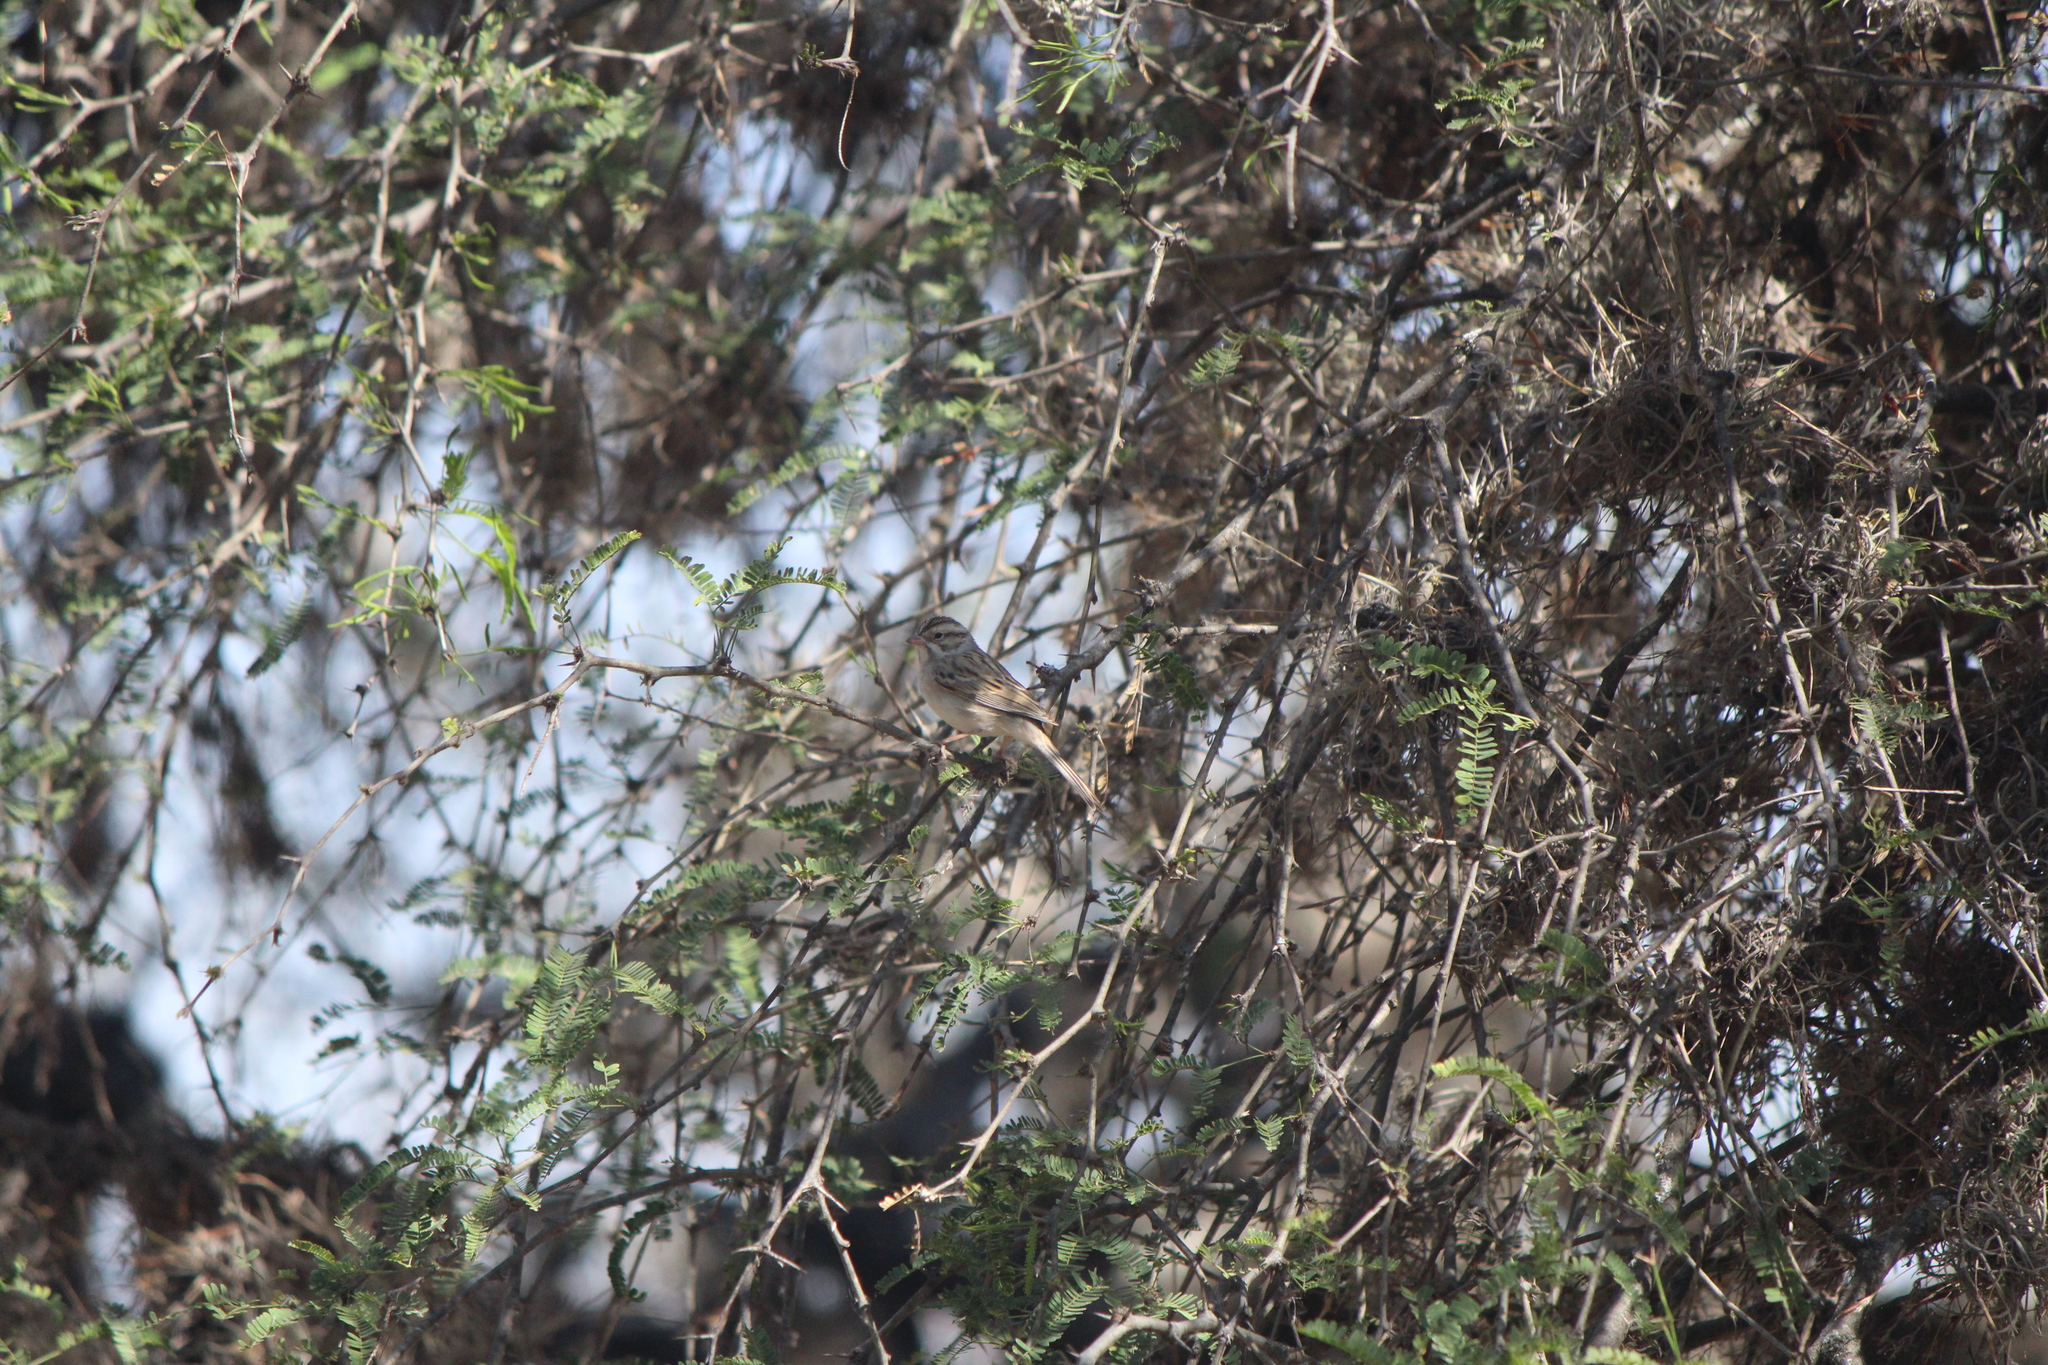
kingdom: Animalia
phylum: Chordata
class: Aves
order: Passeriformes
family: Passerellidae
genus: Spizella
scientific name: Spizella pallida
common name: Clay-colored sparrow
